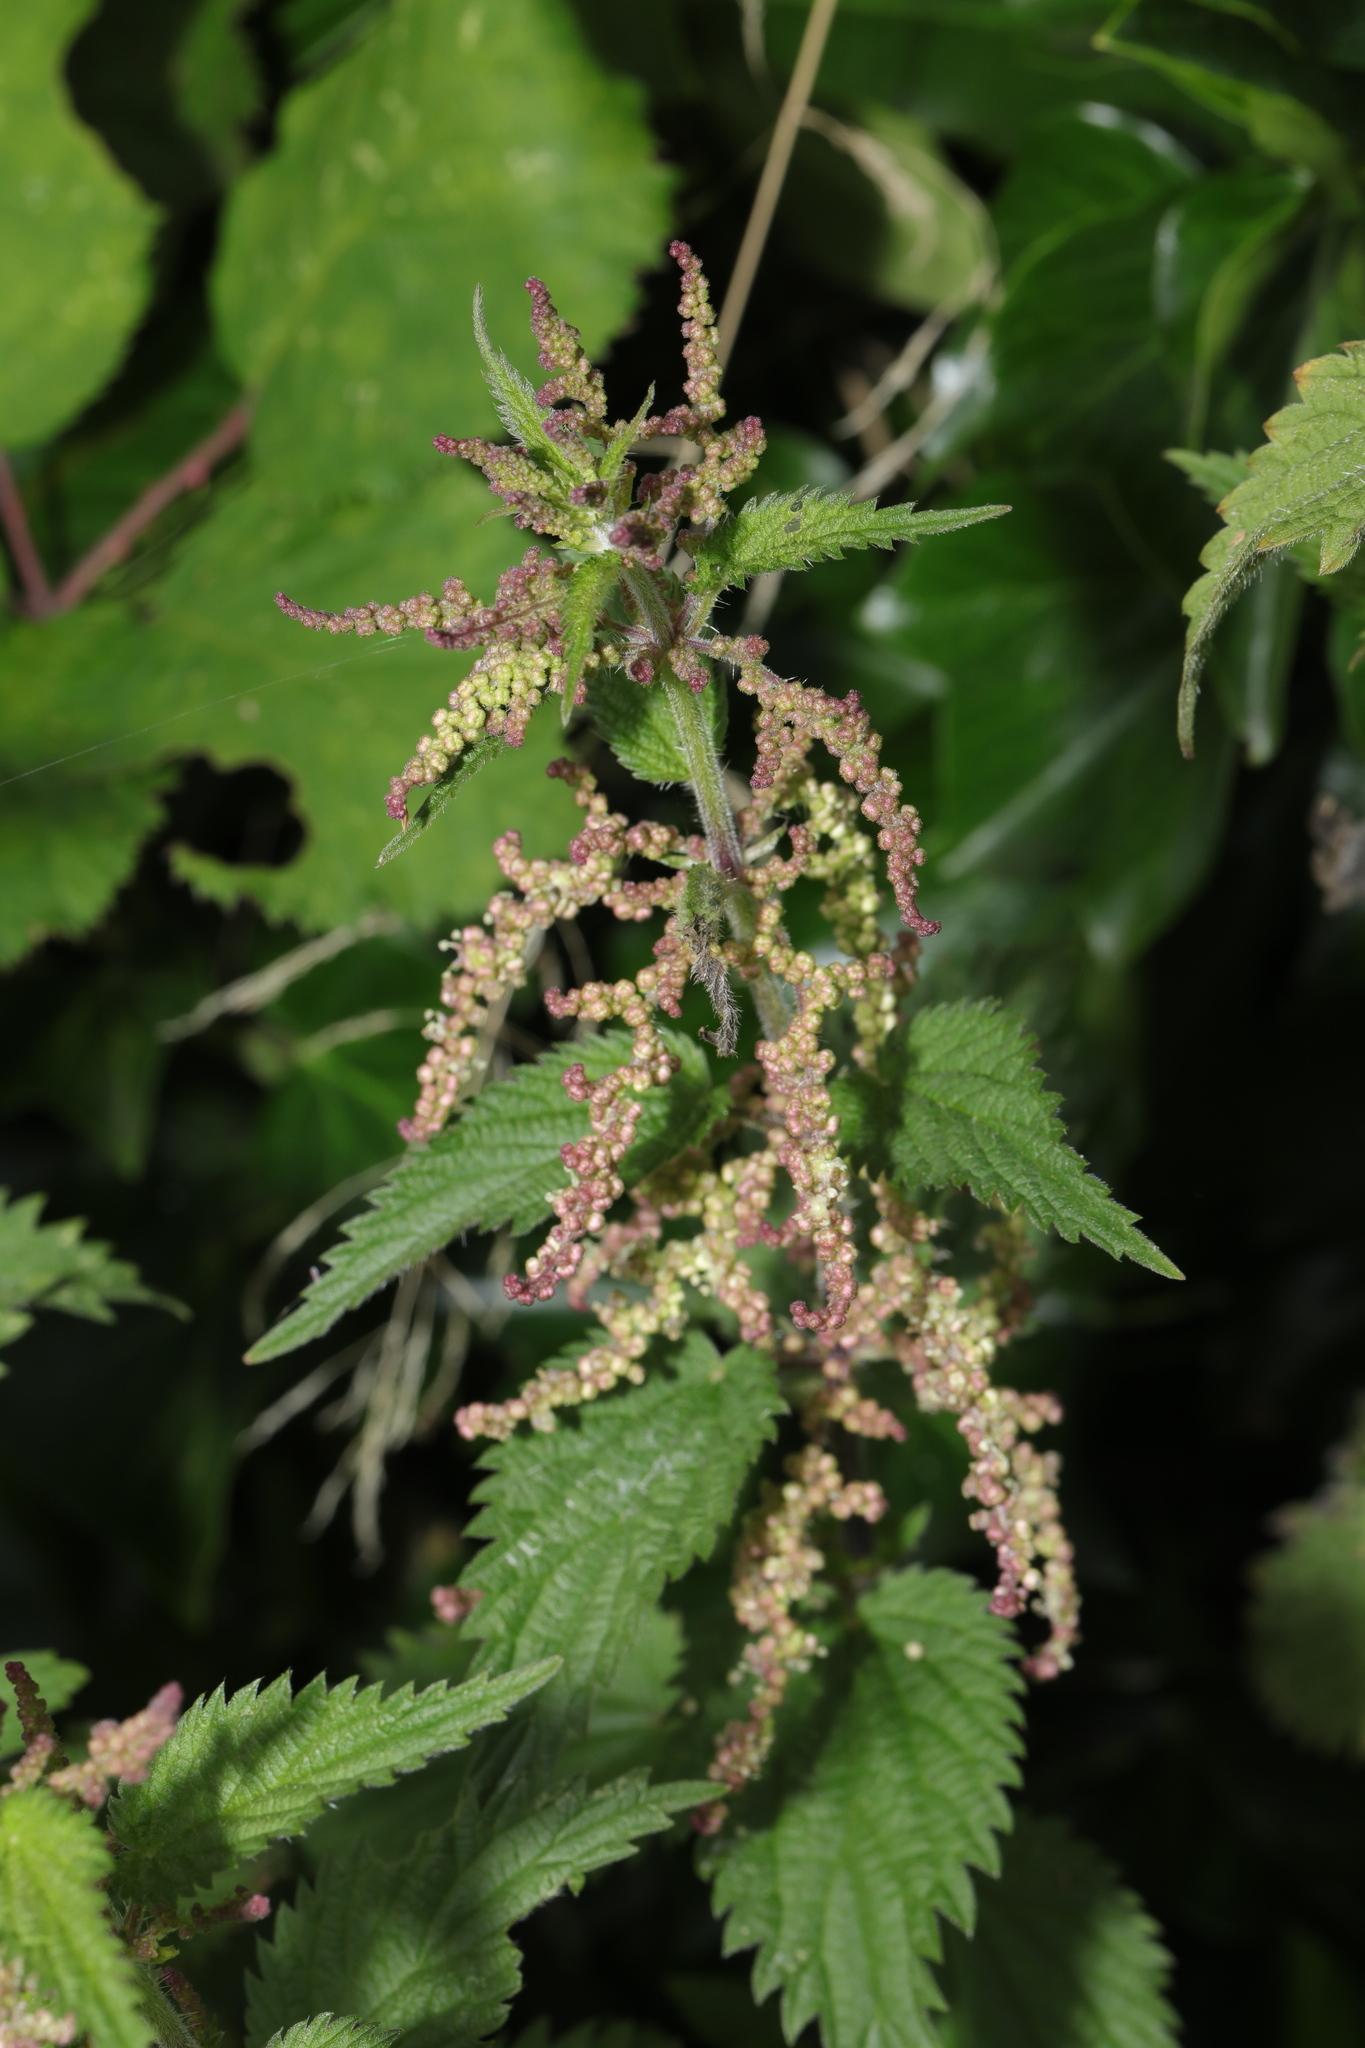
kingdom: Plantae
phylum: Tracheophyta
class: Magnoliopsida
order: Rosales
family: Urticaceae
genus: Urtica
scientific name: Urtica dioica
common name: Common nettle
